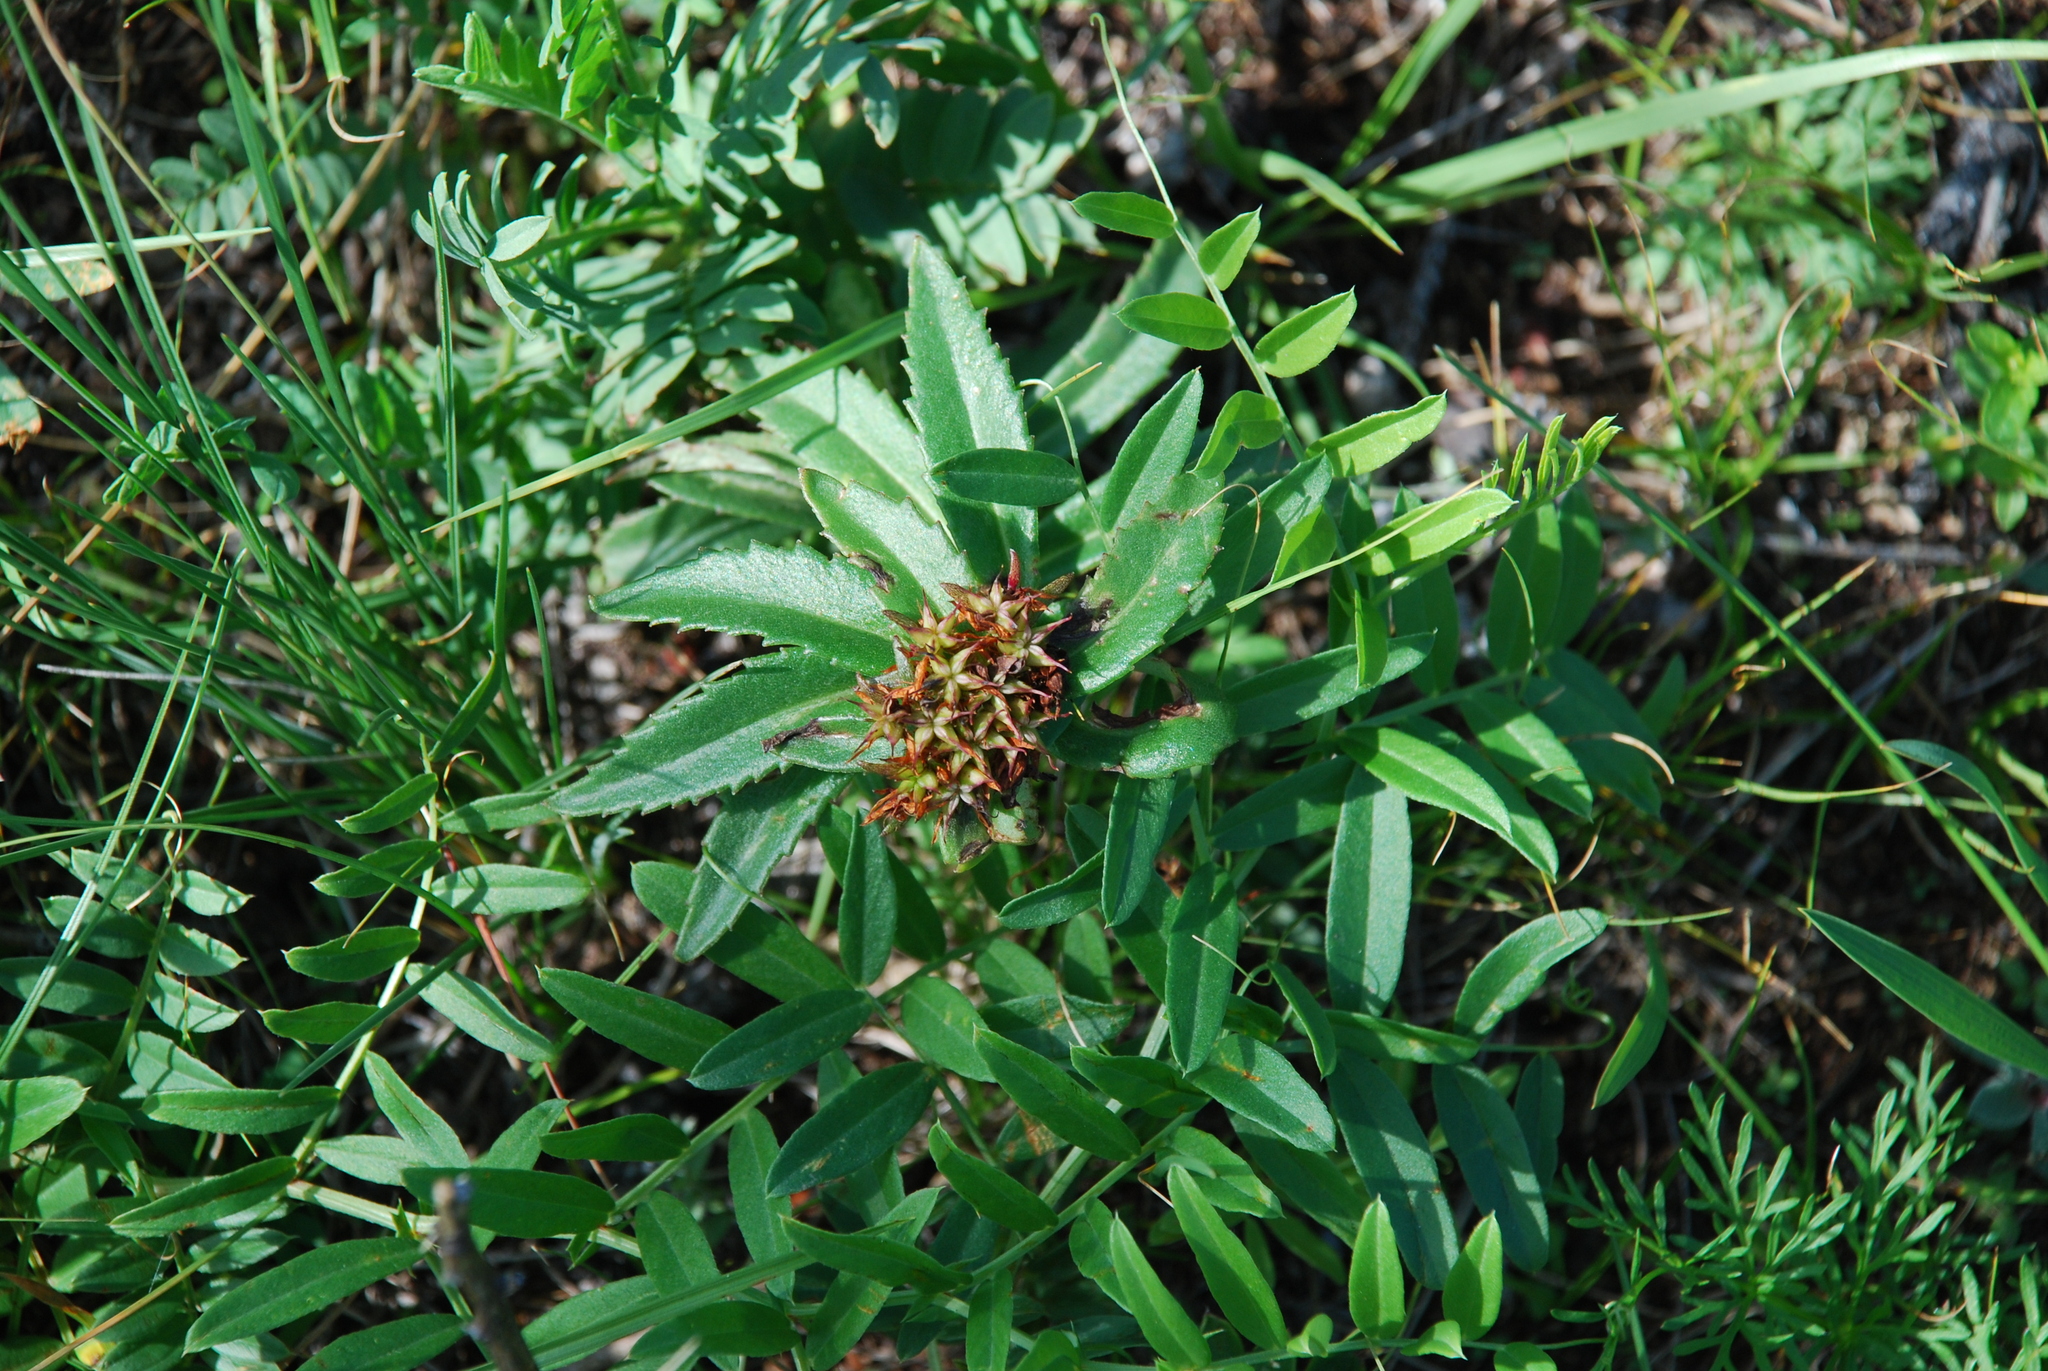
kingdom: Plantae
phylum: Tracheophyta
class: Magnoliopsida
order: Saxifragales
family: Crassulaceae
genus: Phedimus
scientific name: Phedimus aizoon
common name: Orpin aizoon
